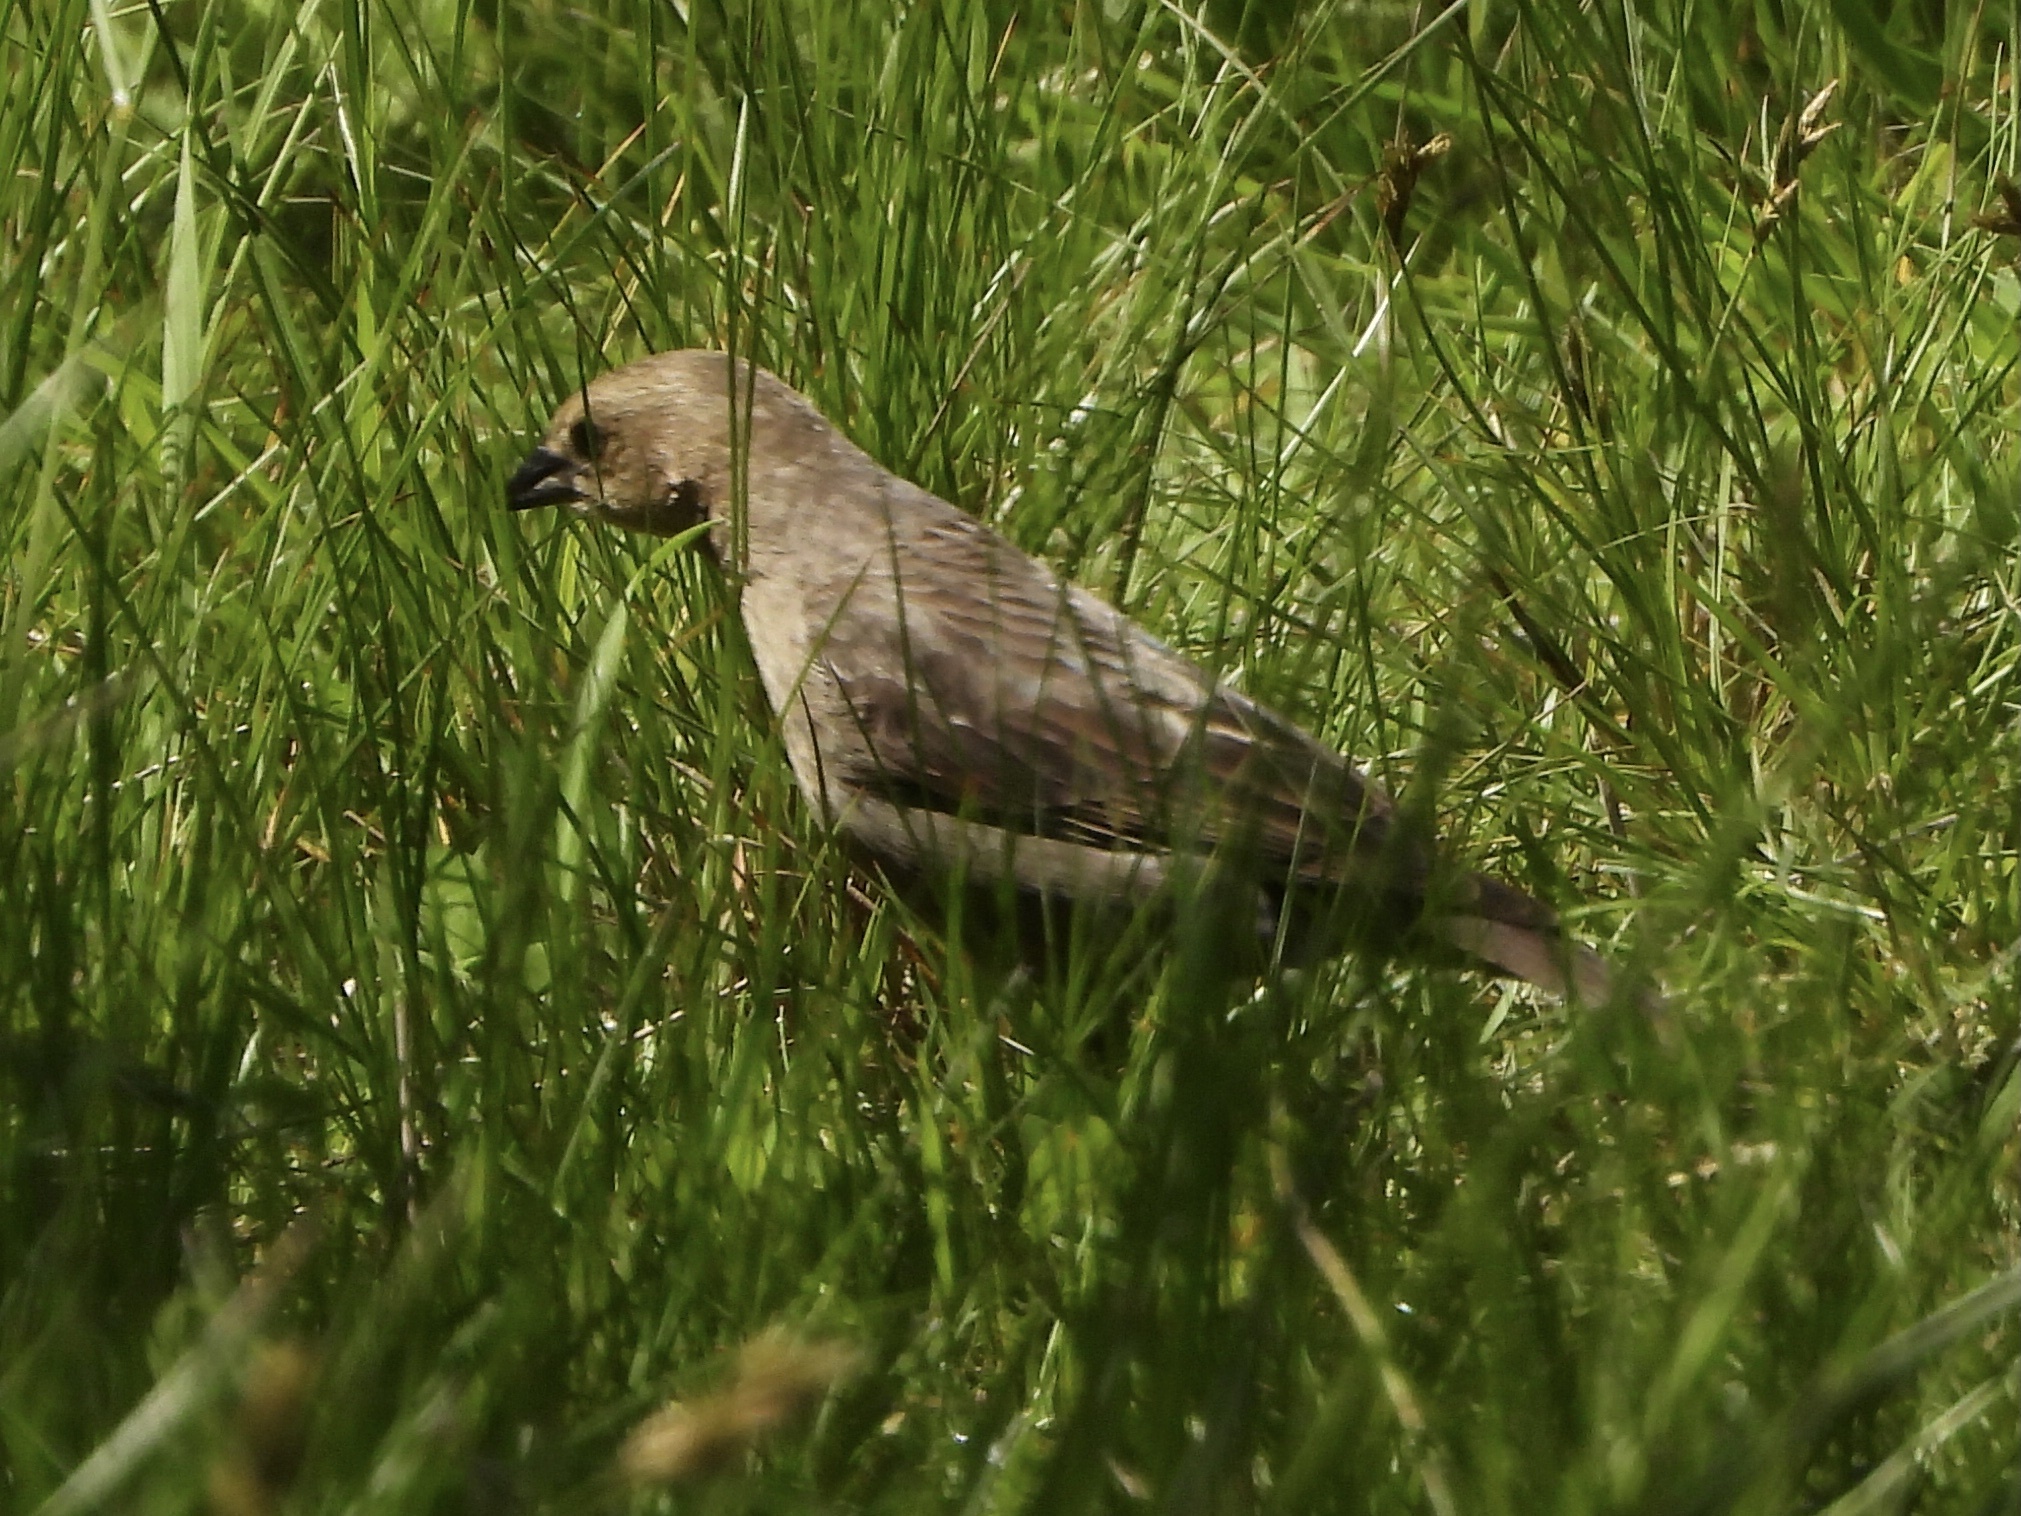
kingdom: Animalia
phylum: Chordata
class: Aves
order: Passeriformes
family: Icteridae
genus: Molothrus
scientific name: Molothrus ater
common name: Brown-headed cowbird
